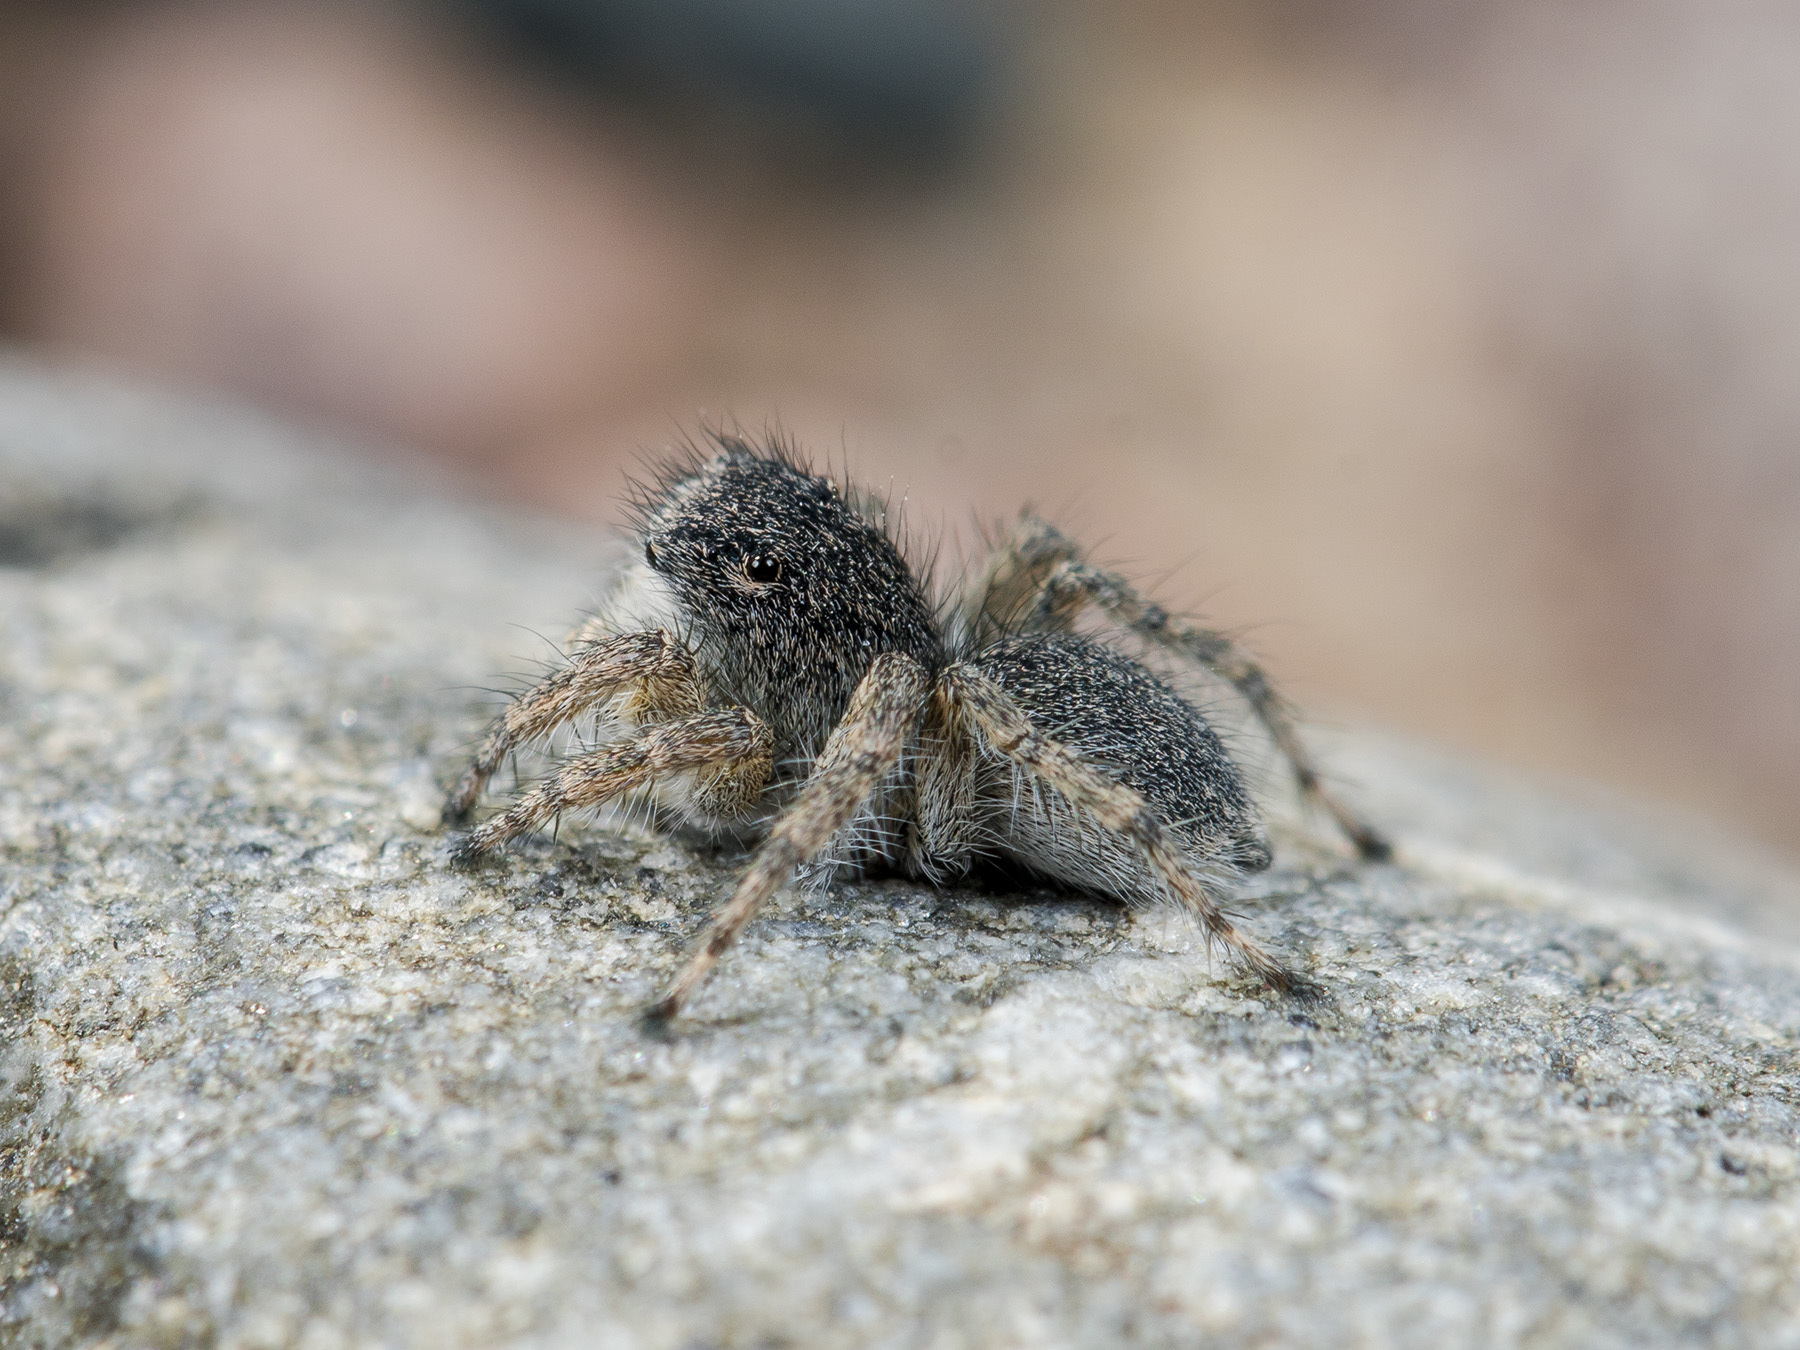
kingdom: Animalia
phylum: Arthropoda
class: Arachnida
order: Araneae
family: Salticidae
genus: Aelurillus
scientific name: Aelurillus dubatolovi
